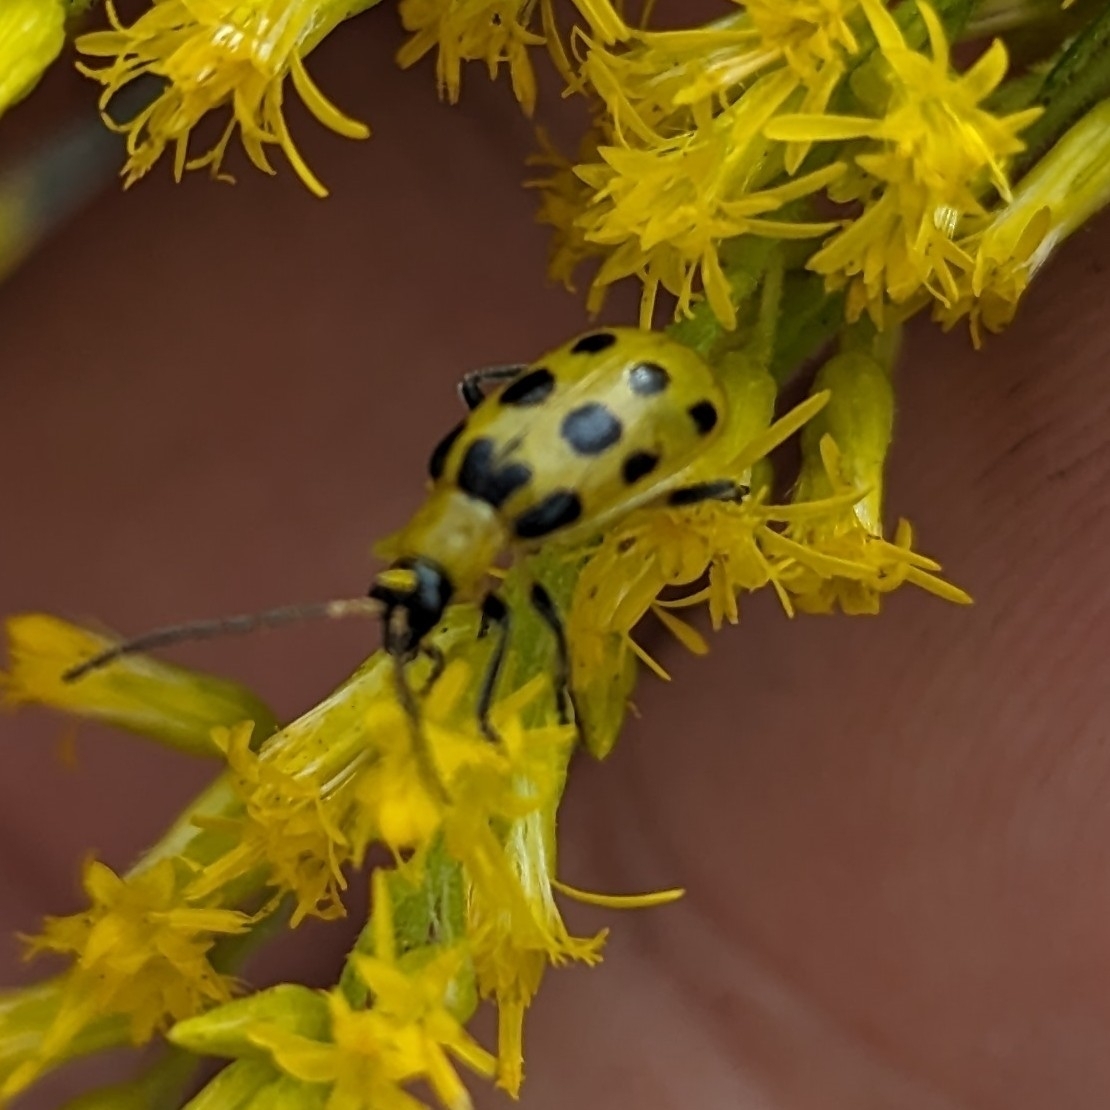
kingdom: Animalia
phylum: Arthropoda
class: Insecta
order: Coleoptera
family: Chrysomelidae
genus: Diabrotica
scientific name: Diabrotica undecimpunctata
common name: Spotted cucumber beetle
